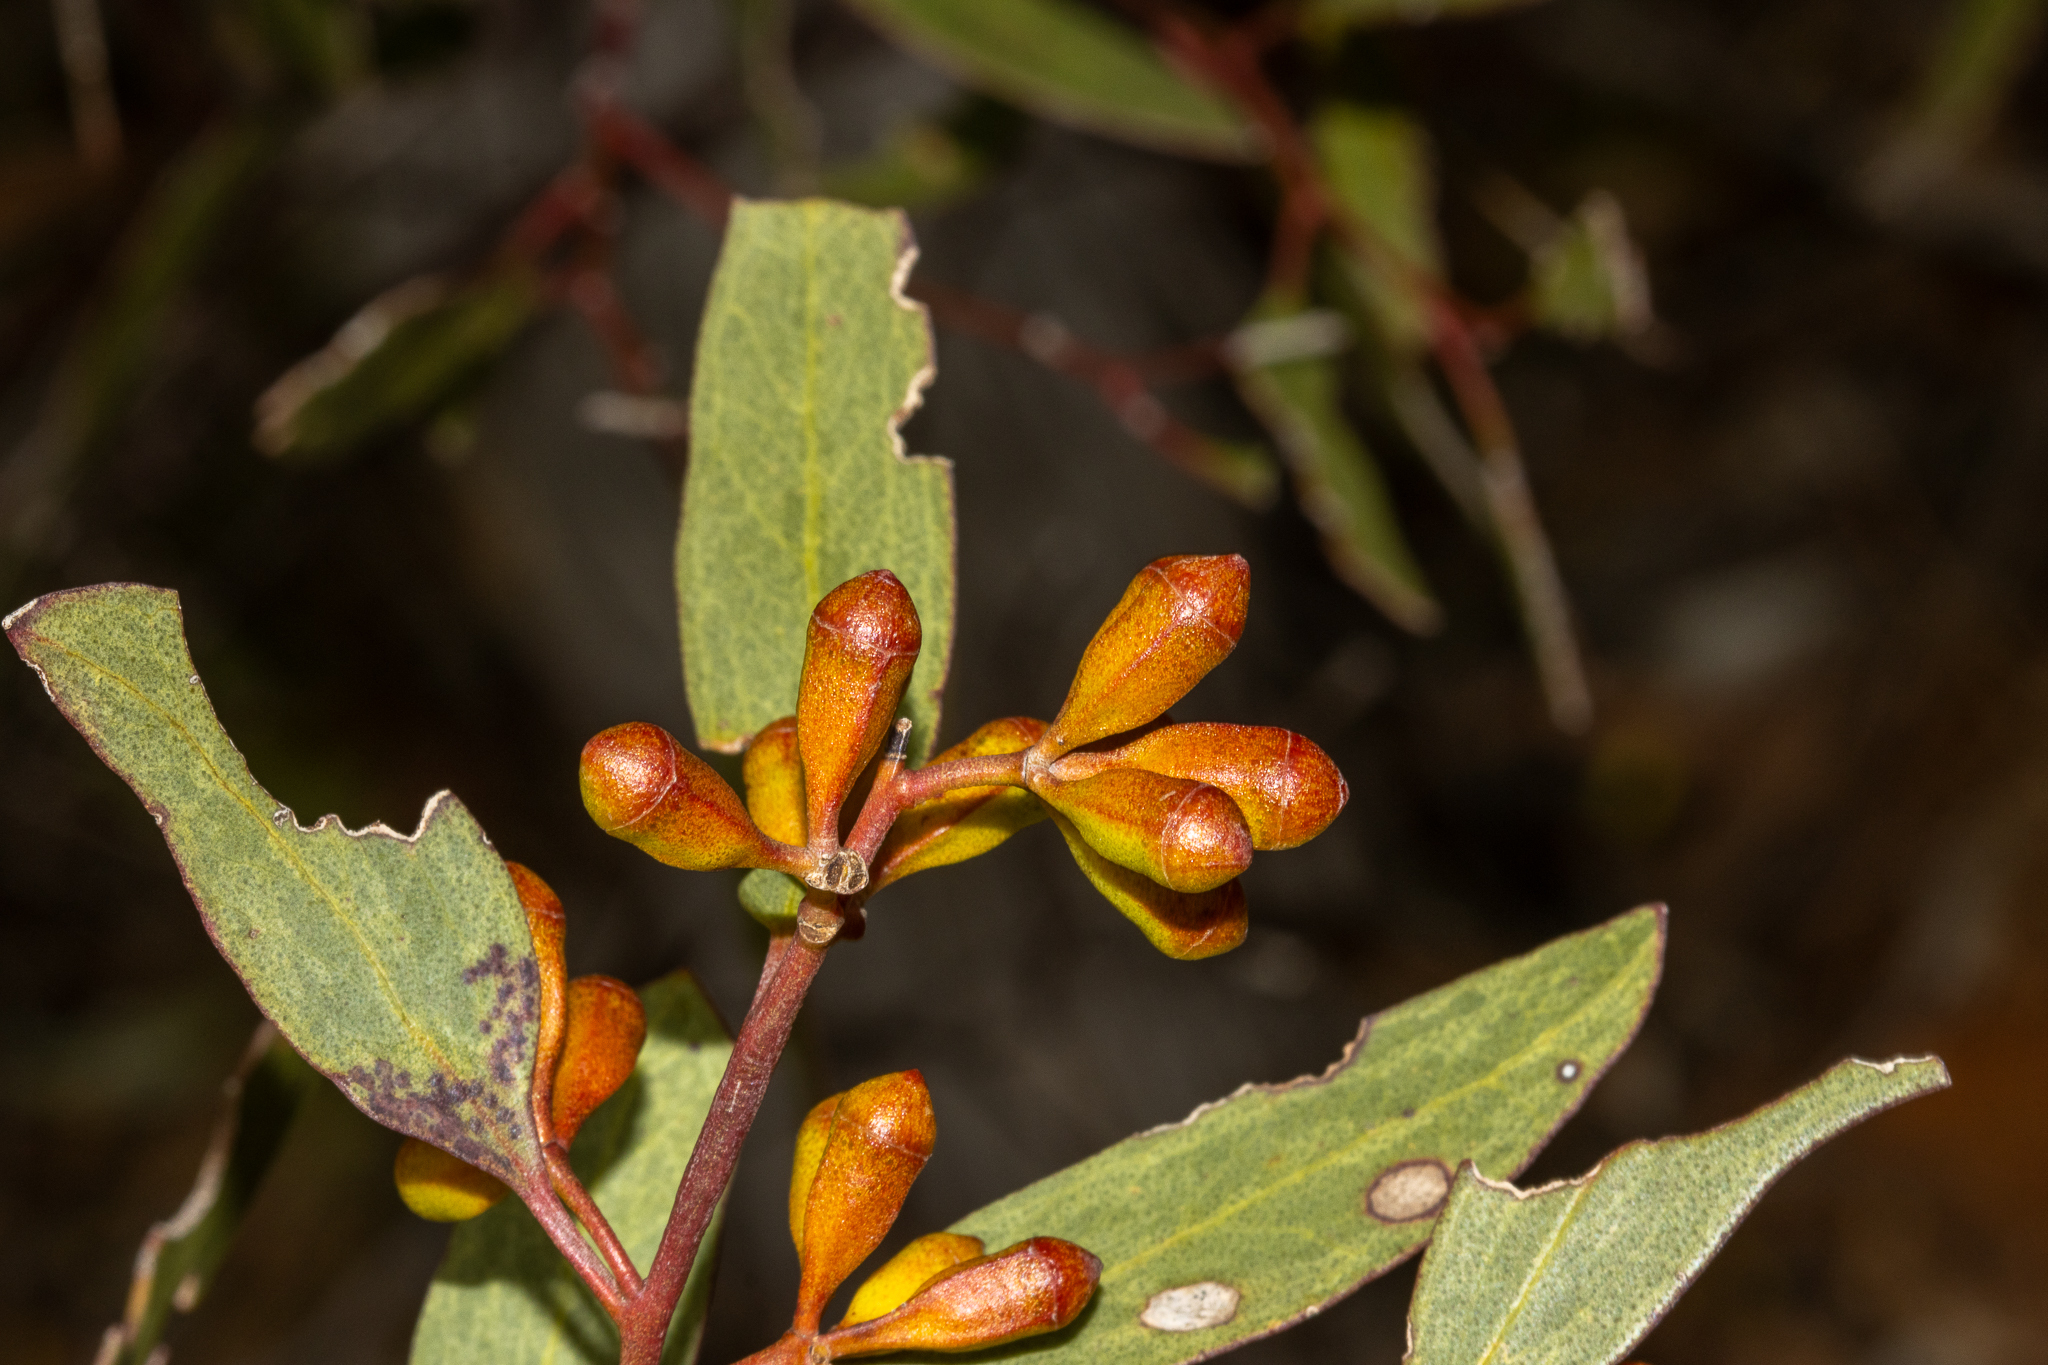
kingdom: Plantae
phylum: Tracheophyta
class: Magnoliopsida
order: Myrtales
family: Myrtaceae
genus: Eucalyptus
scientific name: Eucalyptus calycogona
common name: Marvel mallee
